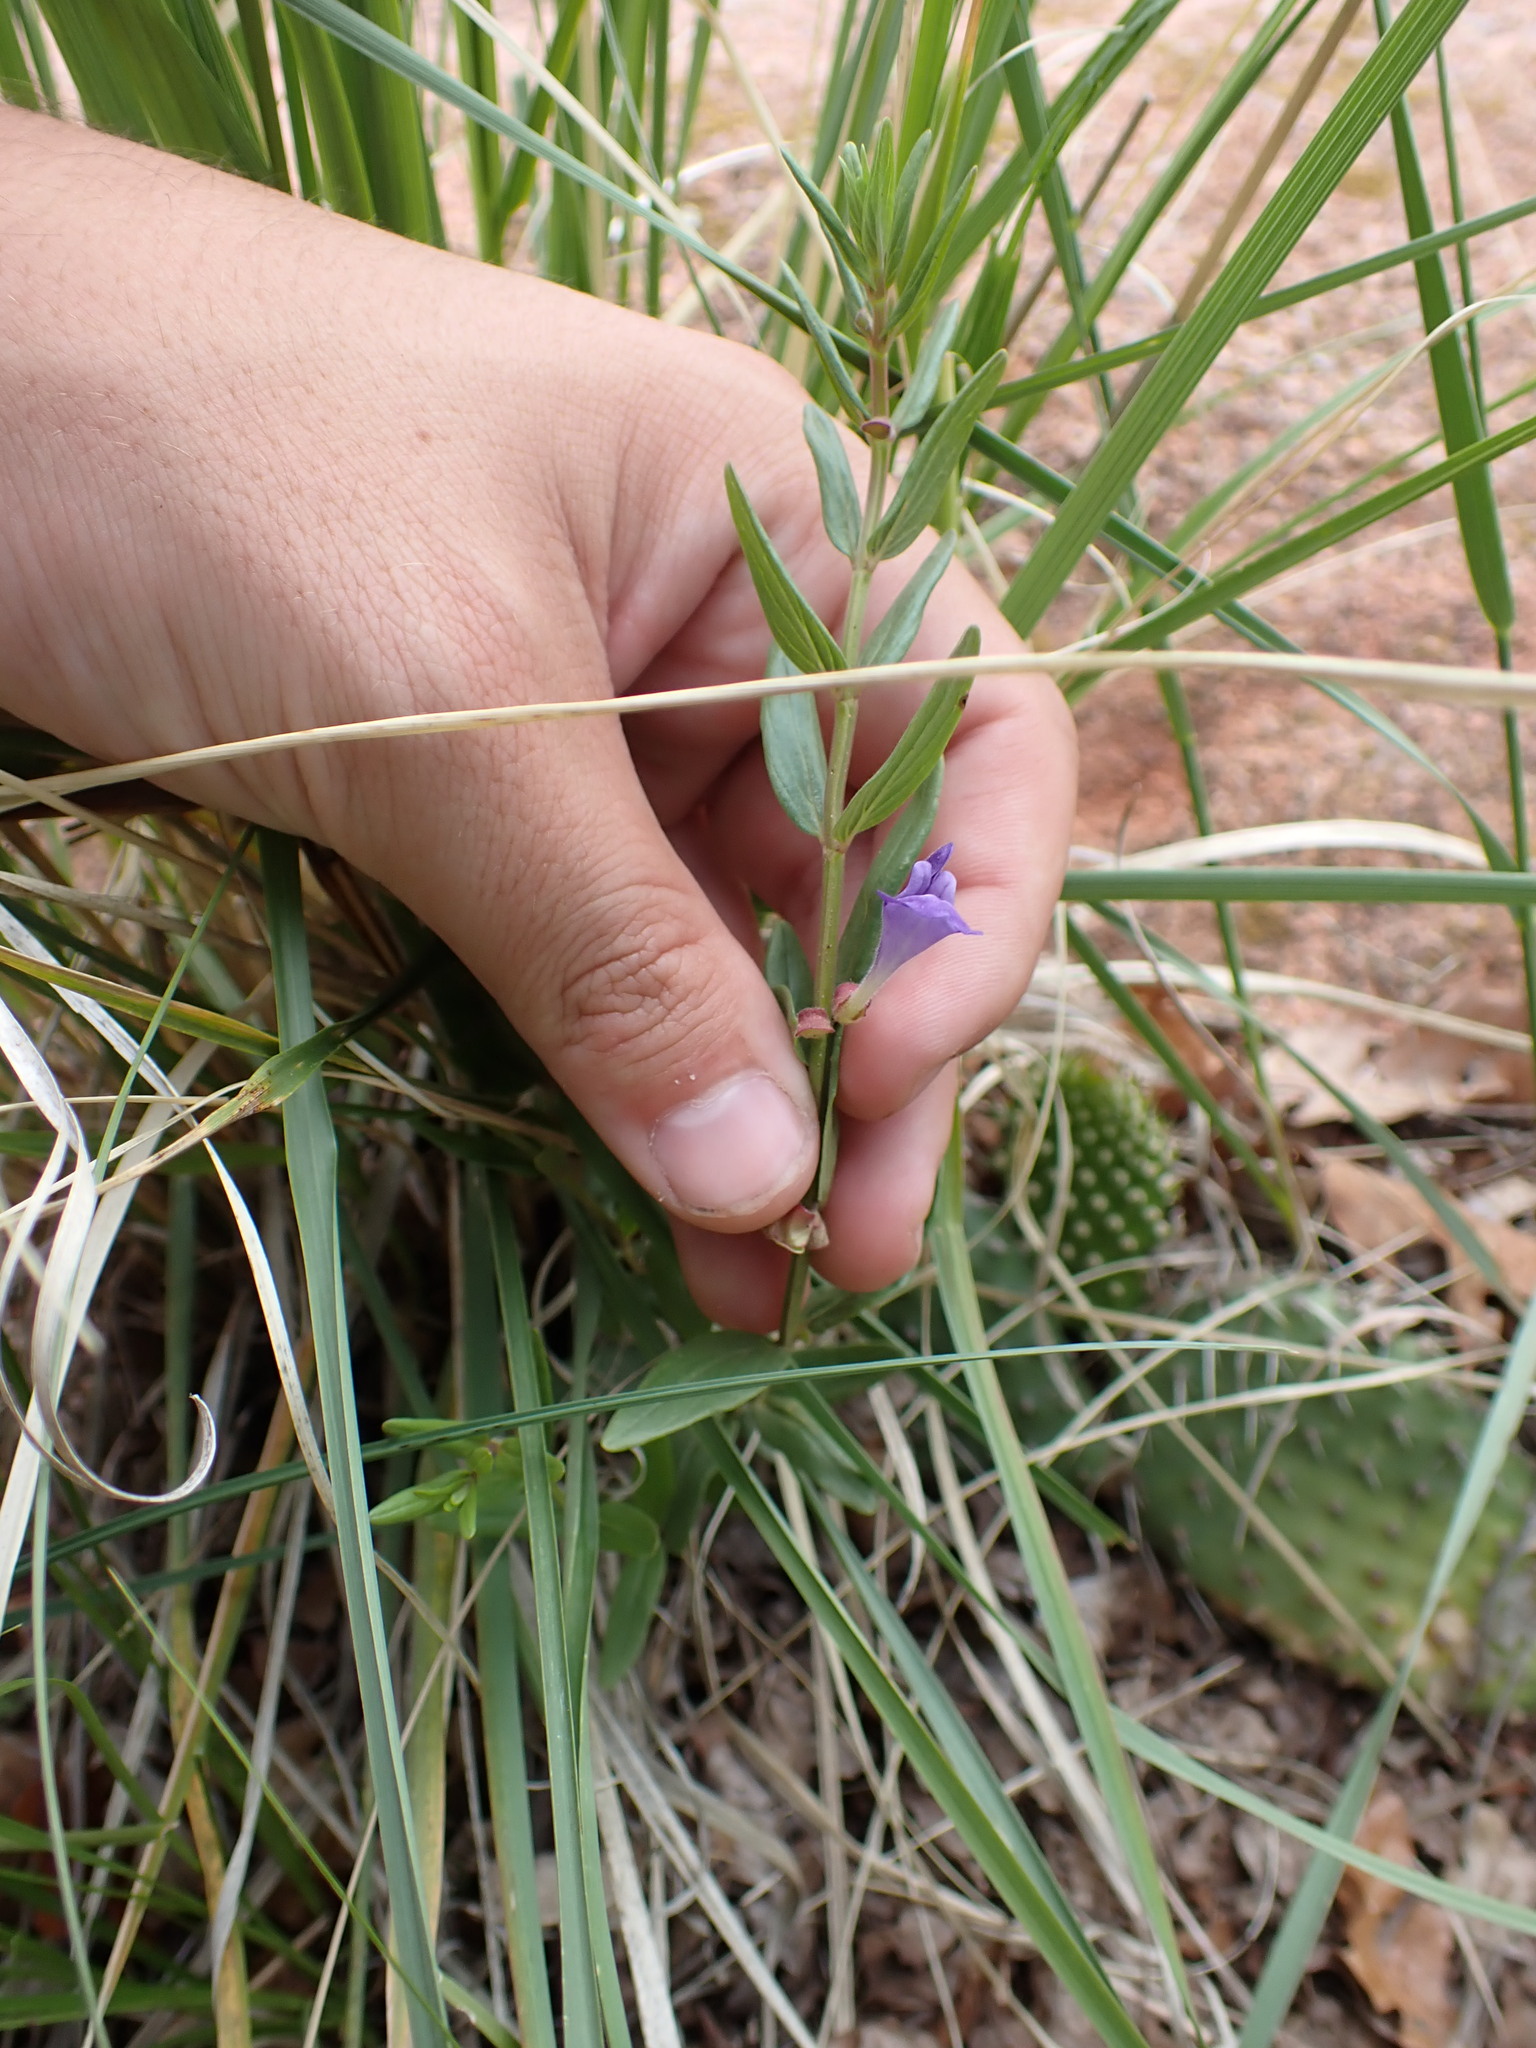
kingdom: Plantae
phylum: Tracheophyta
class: Magnoliopsida
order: Lamiales
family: Lamiaceae
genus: Scutellaria
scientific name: Scutellaria brittonii
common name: Britton's skullcap
